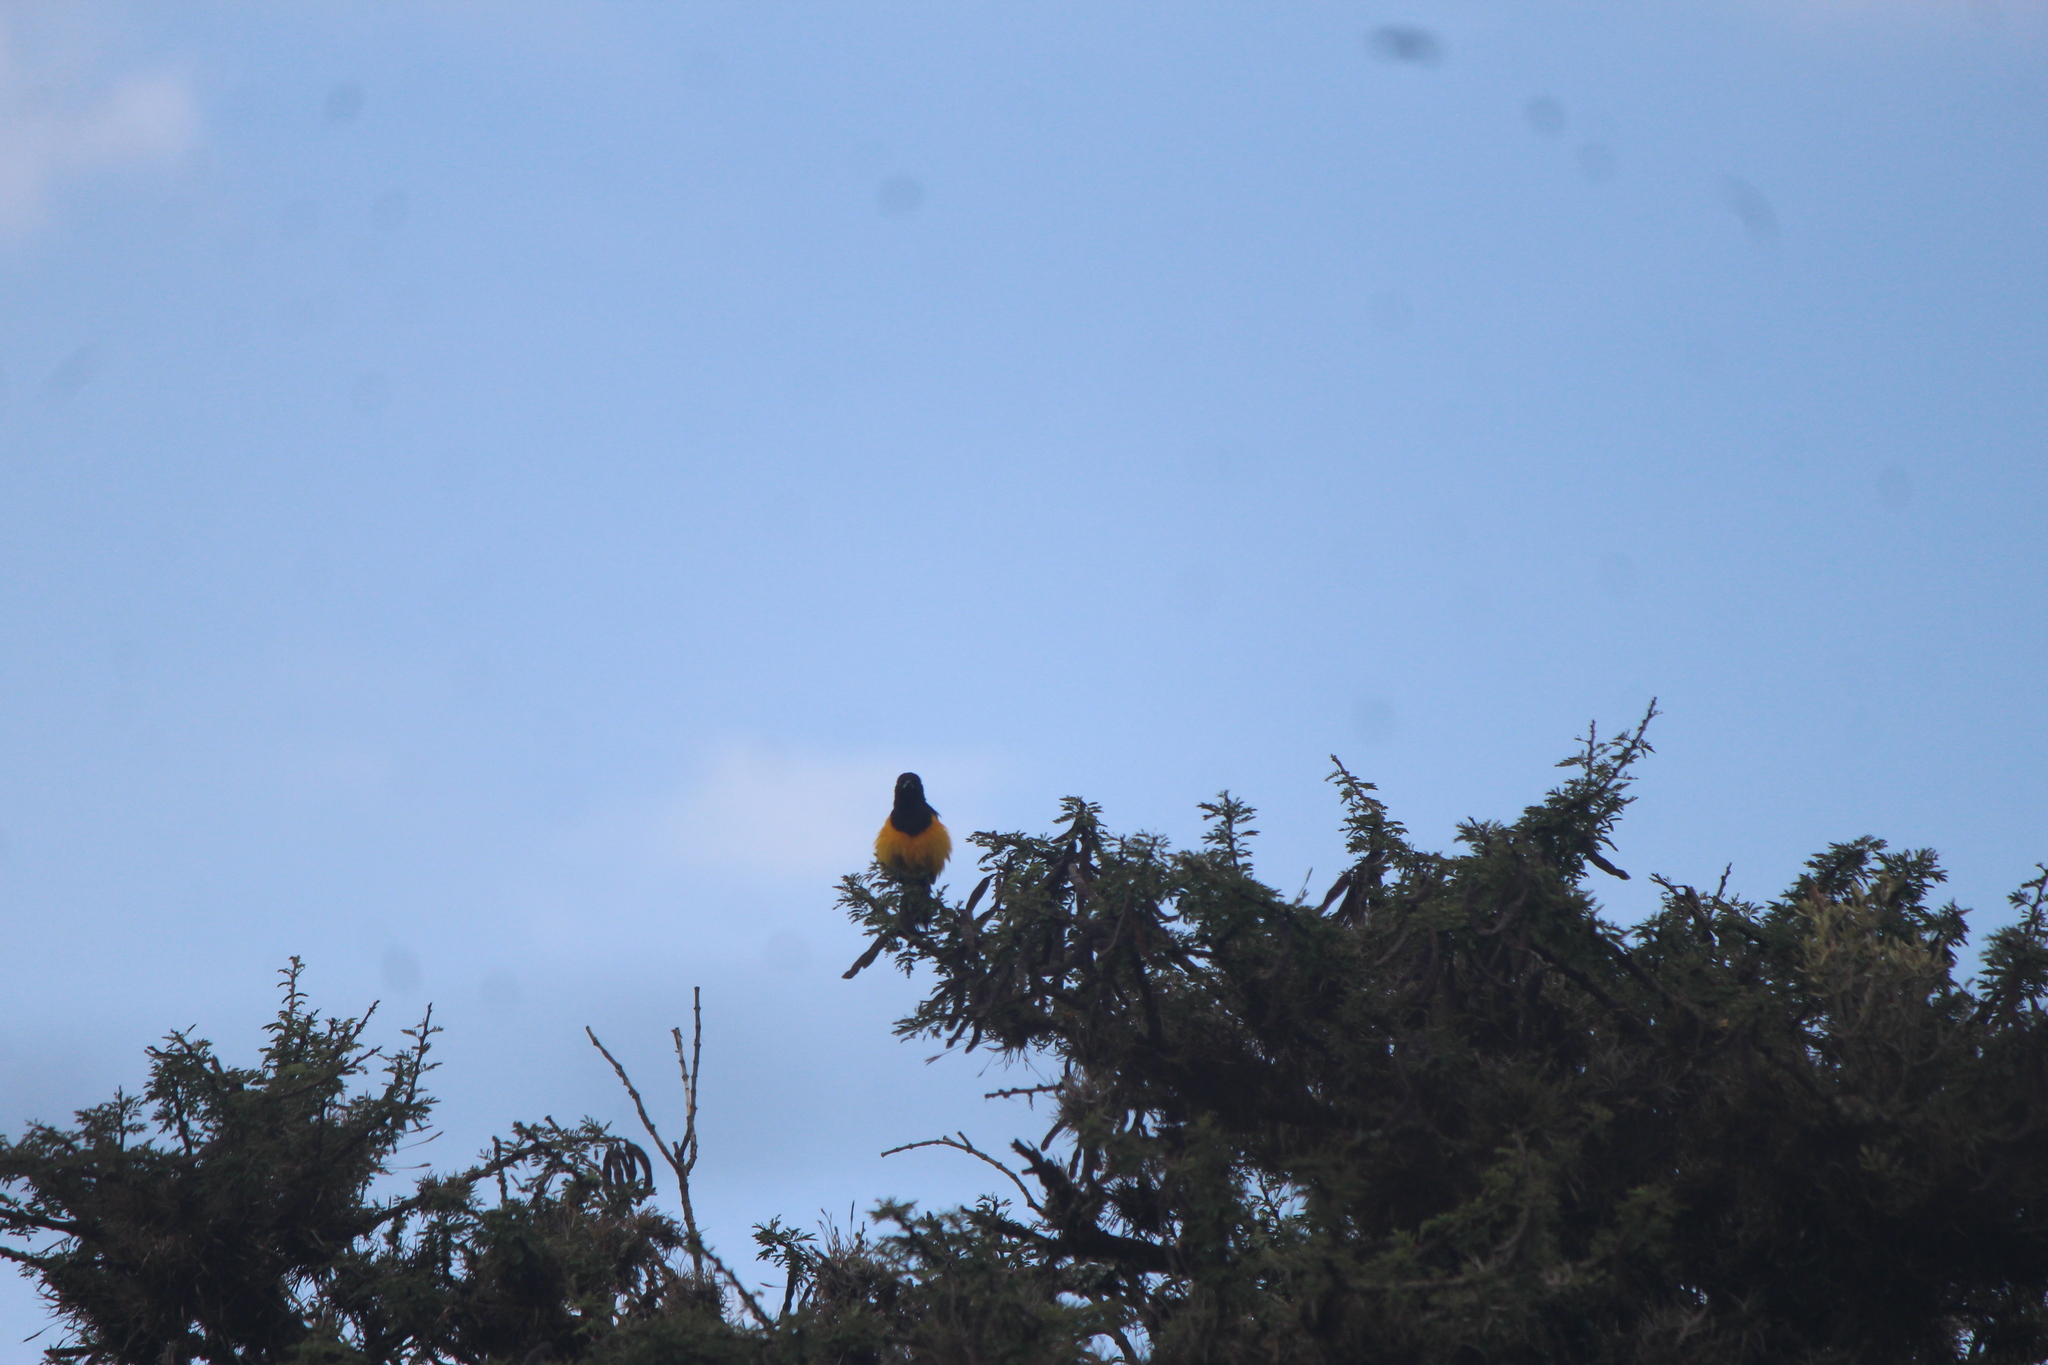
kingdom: Animalia
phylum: Chordata
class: Aves
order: Passeriformes
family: Icteridae
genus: Icterus
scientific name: Icterus wagleri
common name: Black-vented oriole
